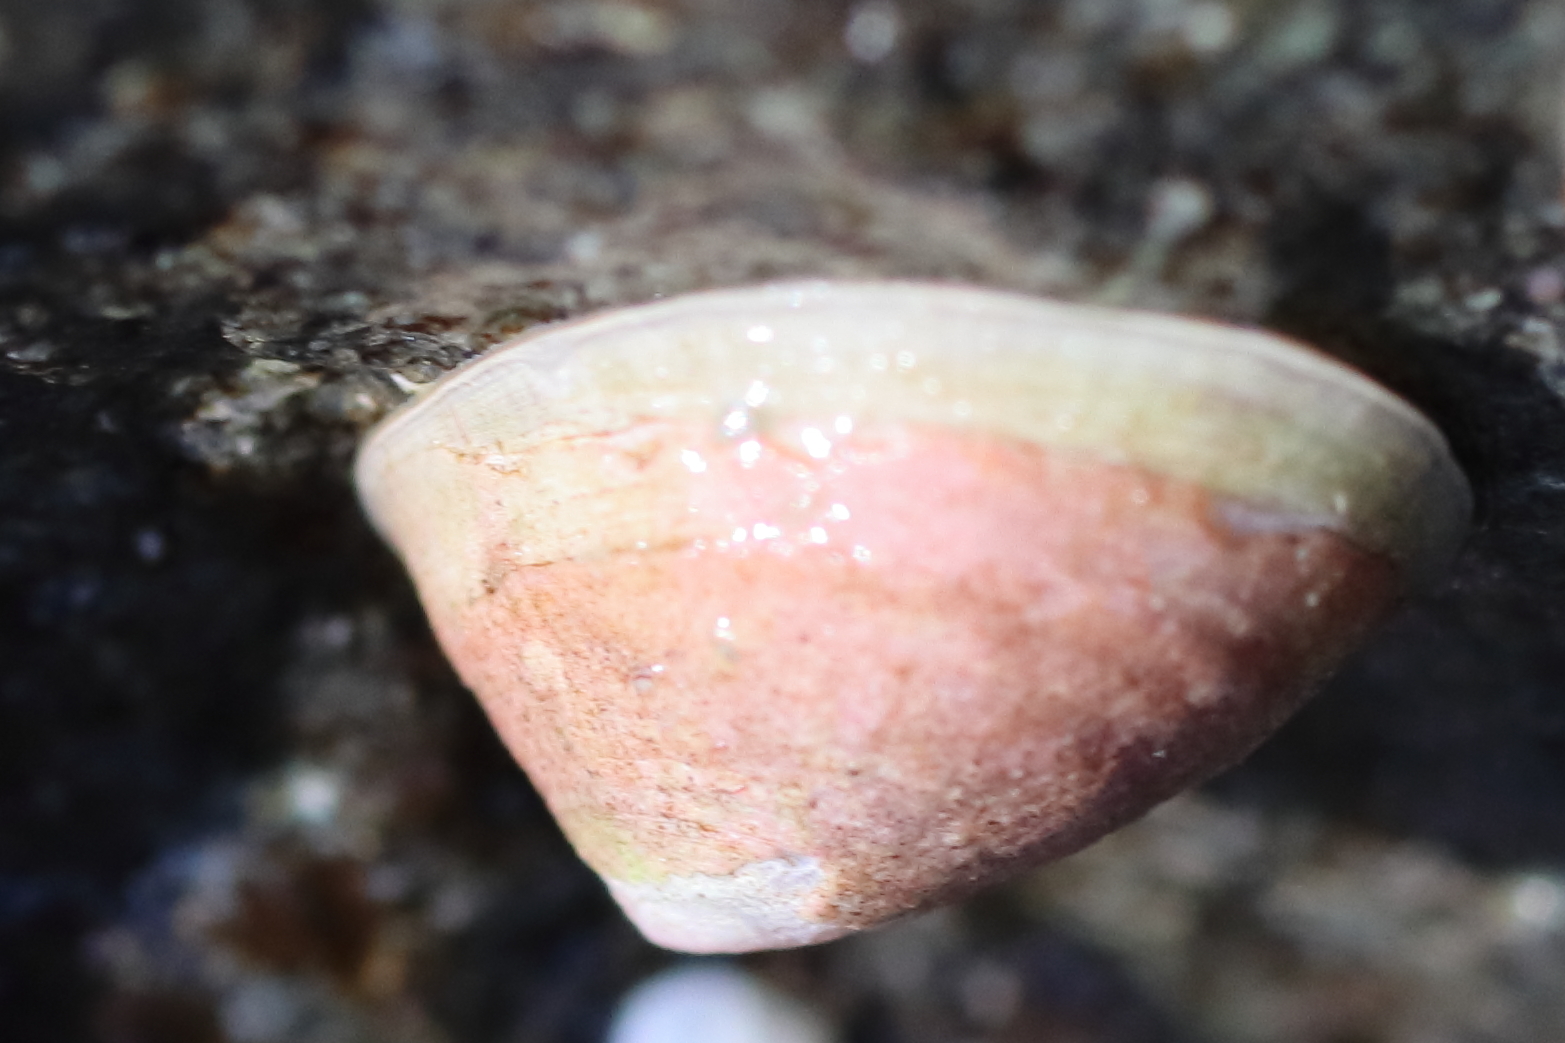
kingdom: Animalia
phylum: Mollusca
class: Gastropoda
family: Acmaeidae
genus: Acmaea
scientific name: Acmaea mitra
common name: Pacific white cap limpet
